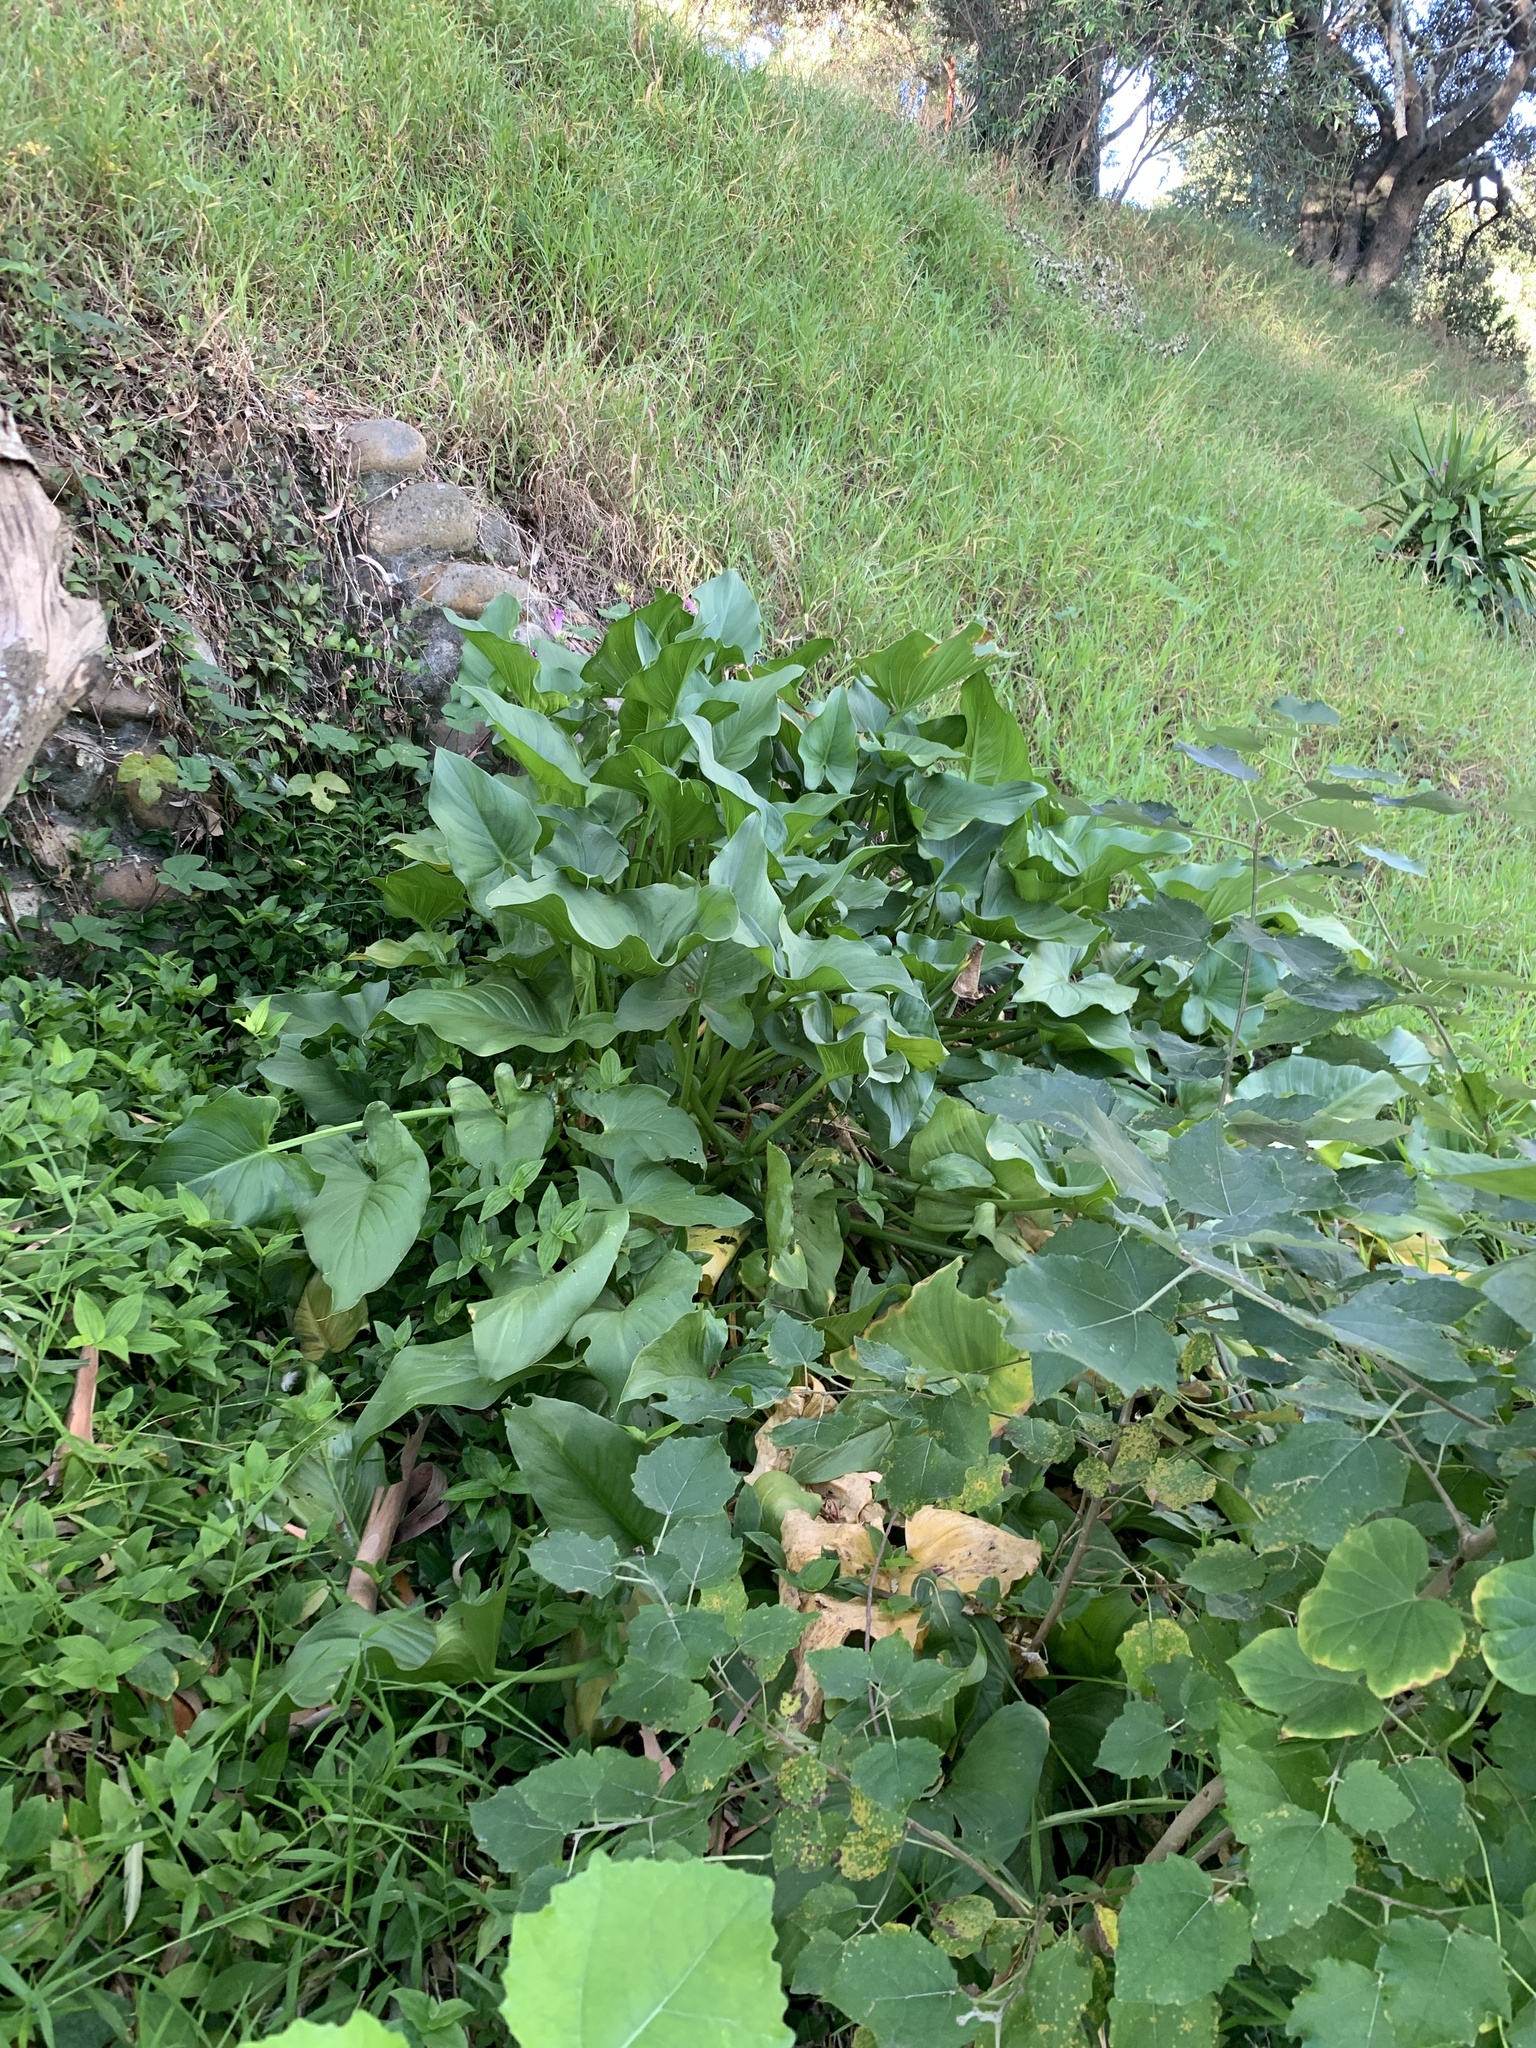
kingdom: Plantae
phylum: Tracheophyta
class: Liliopsida
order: Alismatales
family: Araceae
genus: Zantedeschia
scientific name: Zantedeschia aethiopica
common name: Altar-lily
